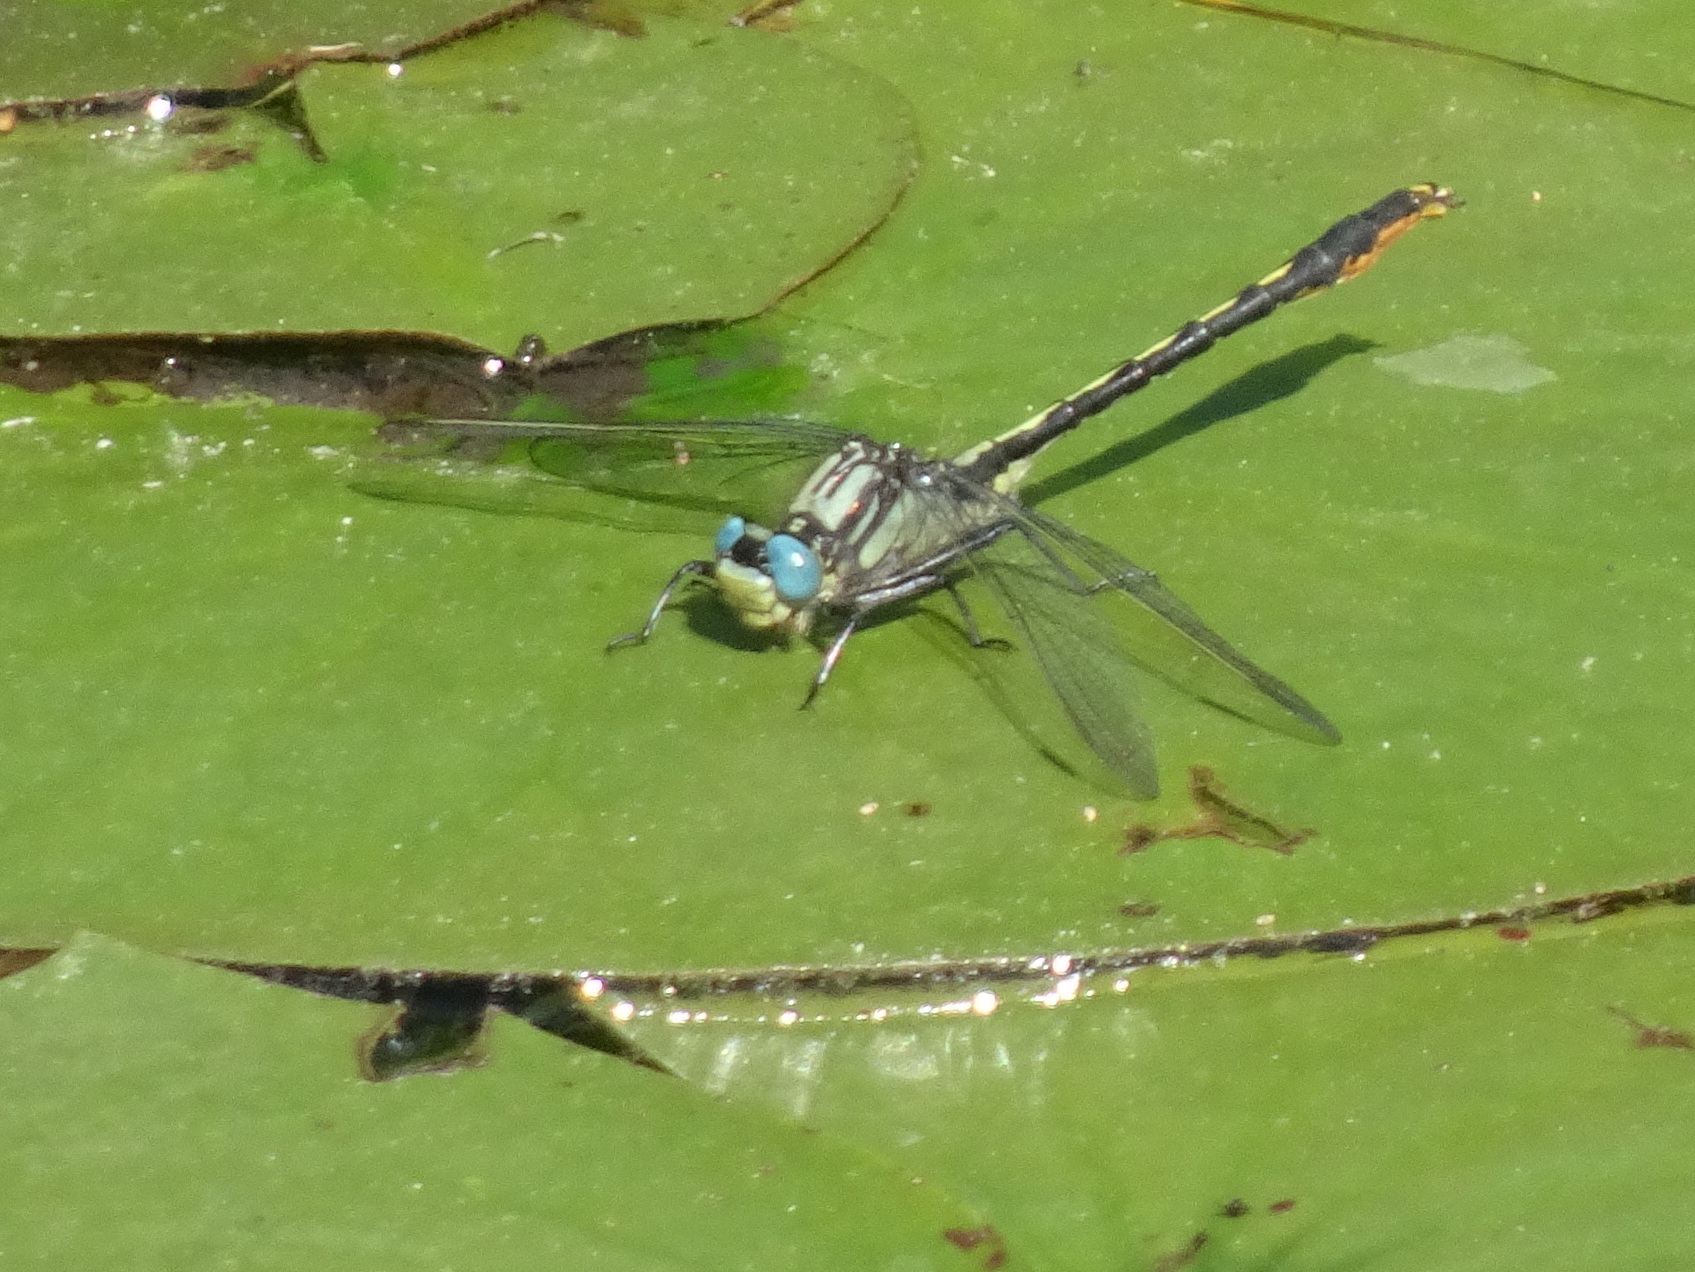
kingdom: Animalia
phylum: Arthropoda
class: Insecta
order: Odonata
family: Gomphidae
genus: Arigomphus
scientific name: Arigomphus furcifer
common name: Lilypad clubtail
